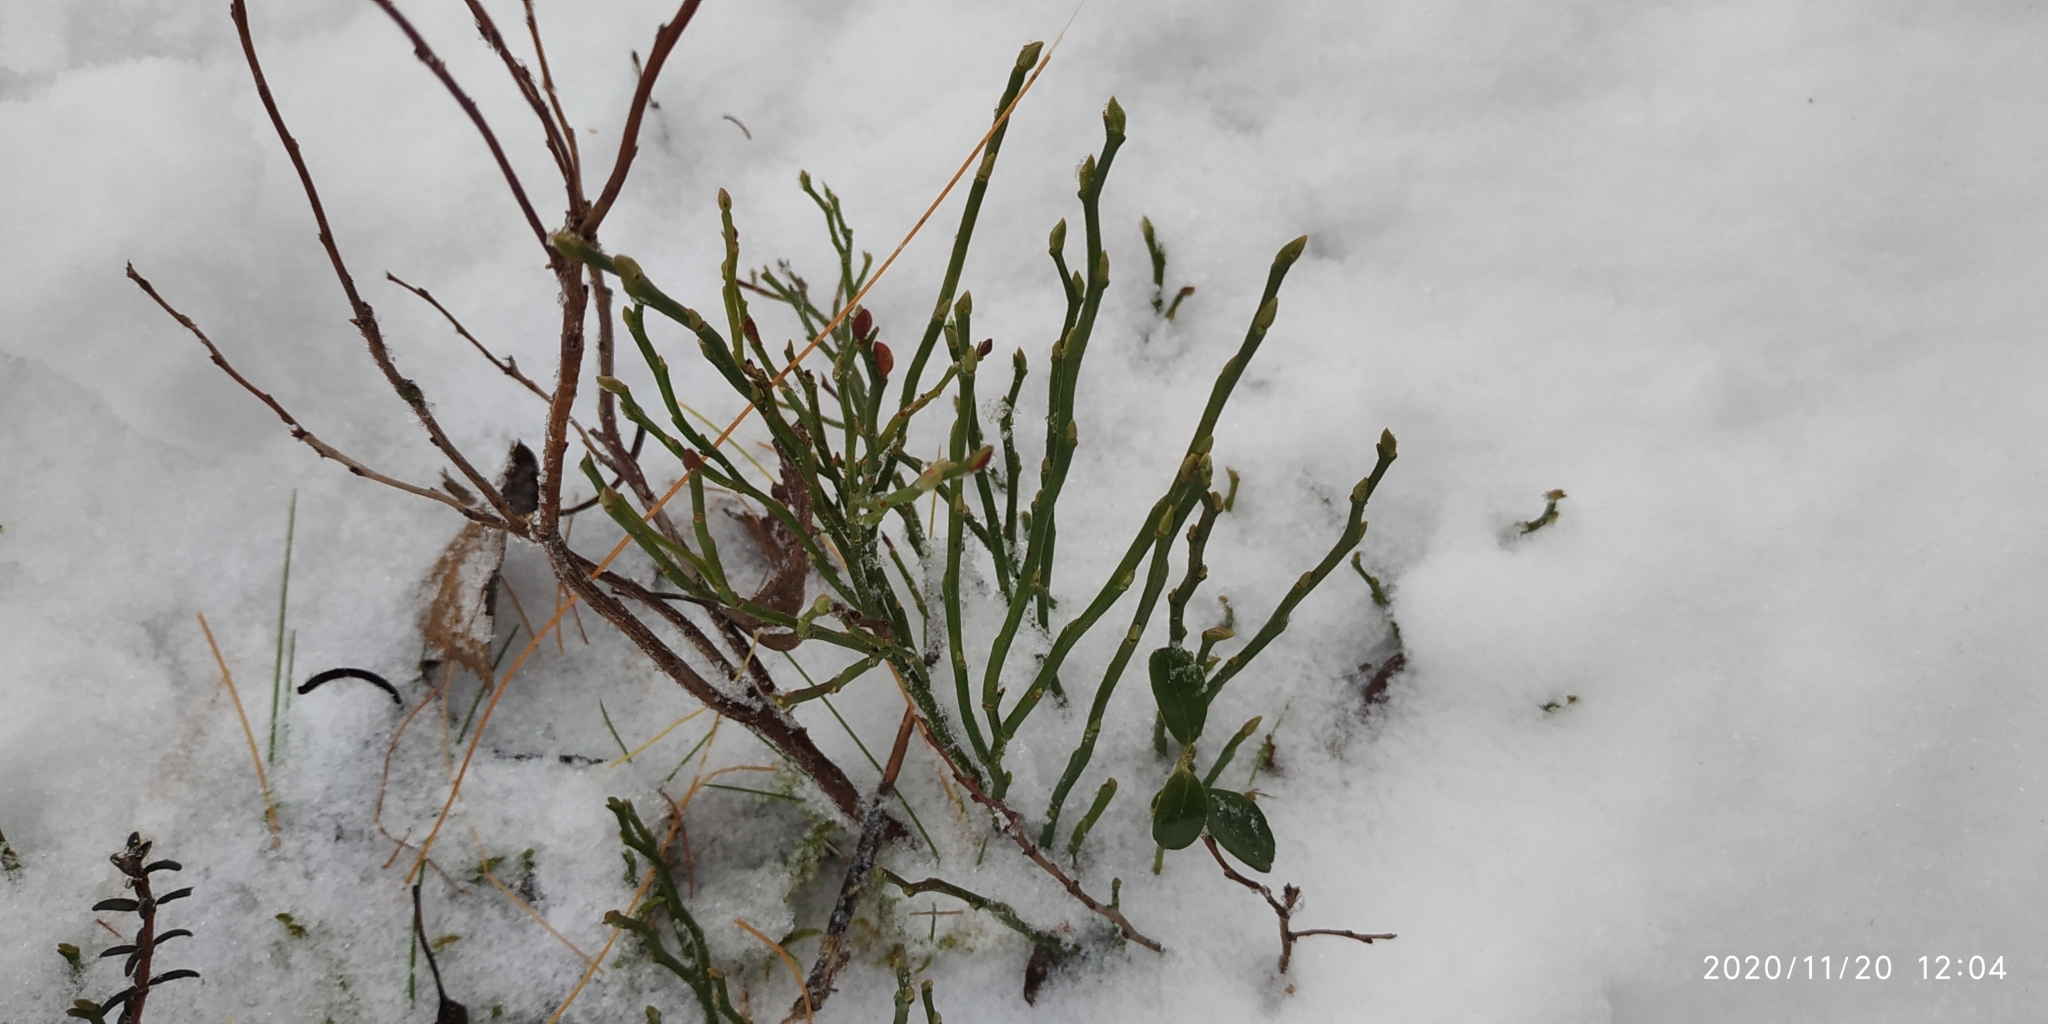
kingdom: Plantae
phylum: Tracheophyta
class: Magnoliopsida
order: Ericales
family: Ericaceae
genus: Vaccinium
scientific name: Vaccinium myrtillus
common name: Bilberry
